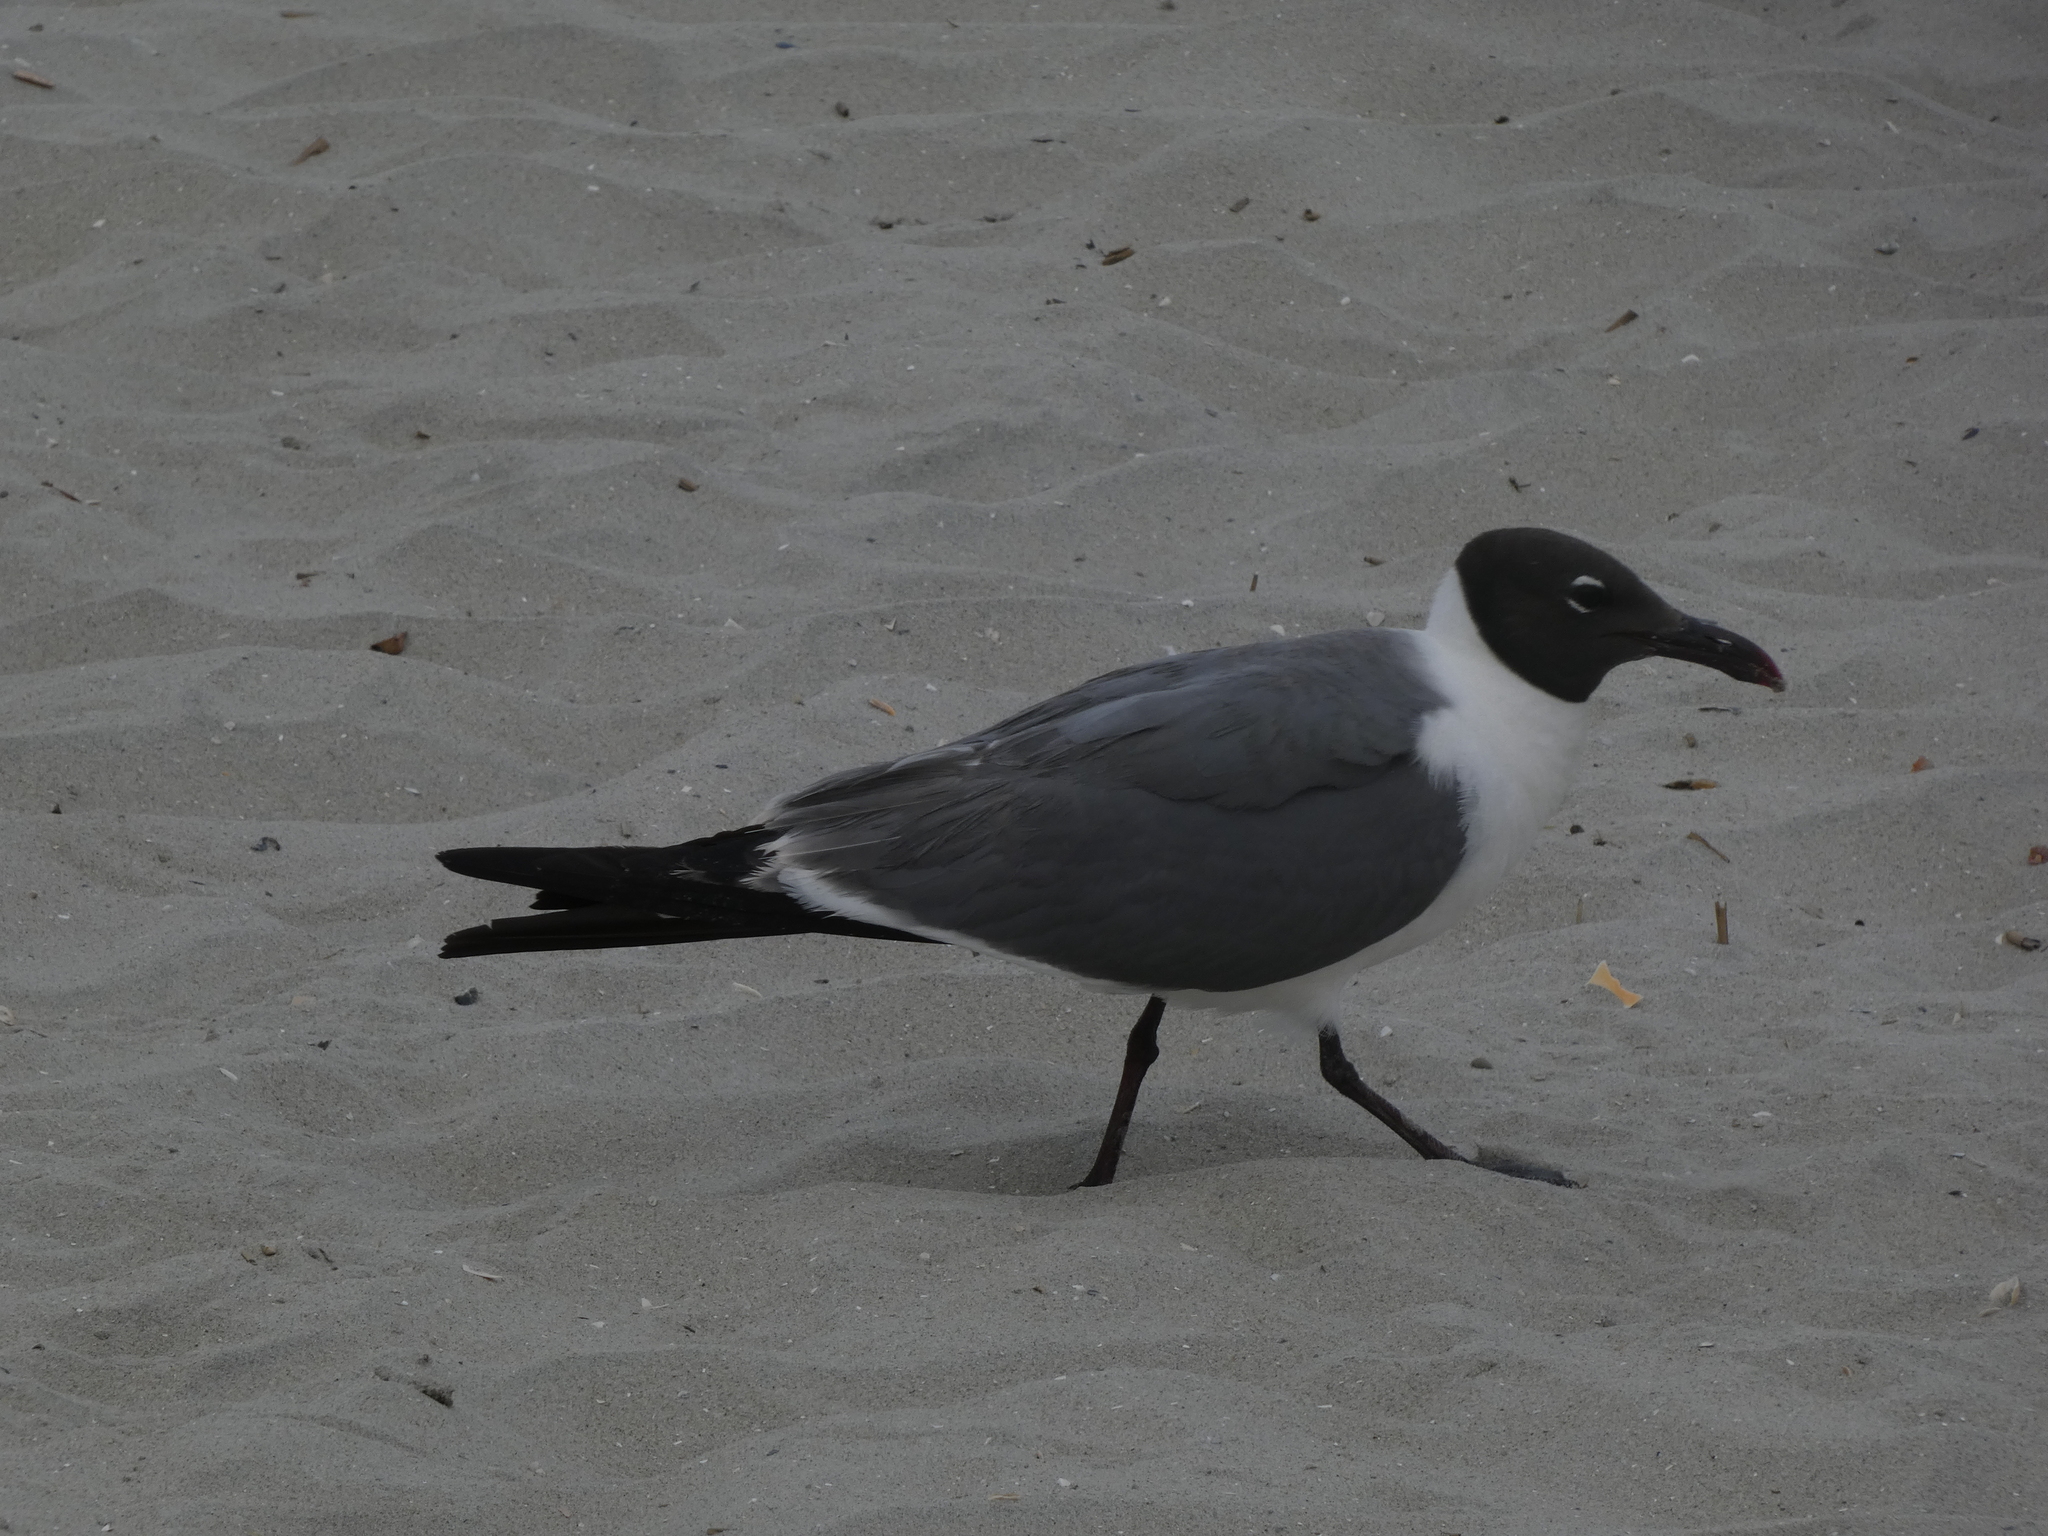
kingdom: Animalia
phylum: Chordata
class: Aves
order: Charadriiformes
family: Laridae
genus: Leucophaeus
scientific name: Leucophaeus atricilla
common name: Laughing gull
